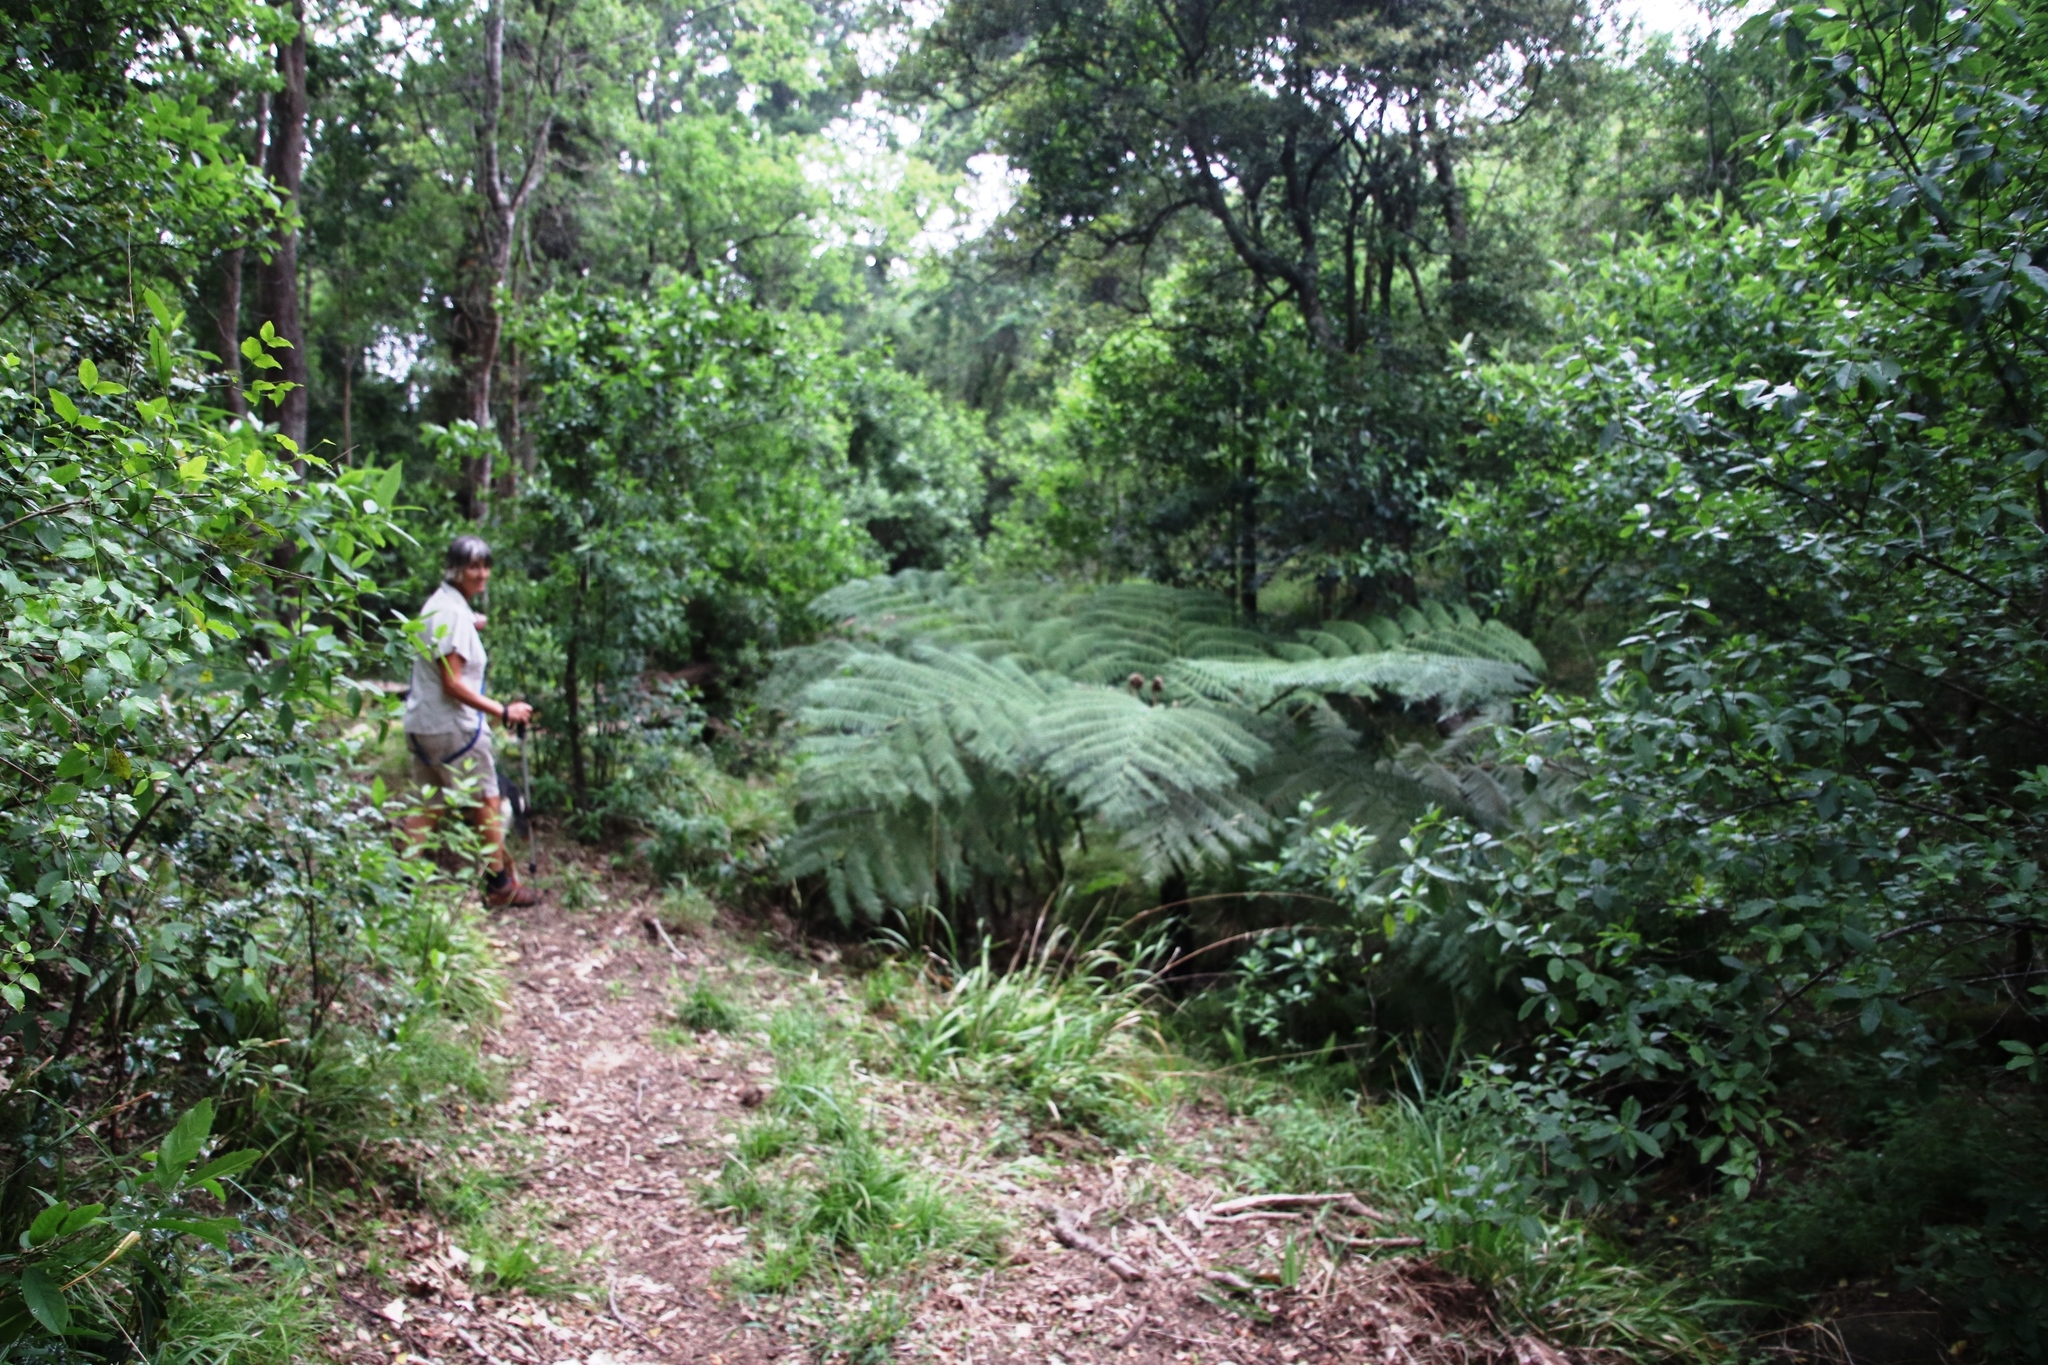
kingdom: Plantae
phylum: Tracheophyta
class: Polypodiopsida
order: Cyatheales
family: Cyatheaceae
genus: Sphaeropteris
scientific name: Sphaeropteris cooperi
